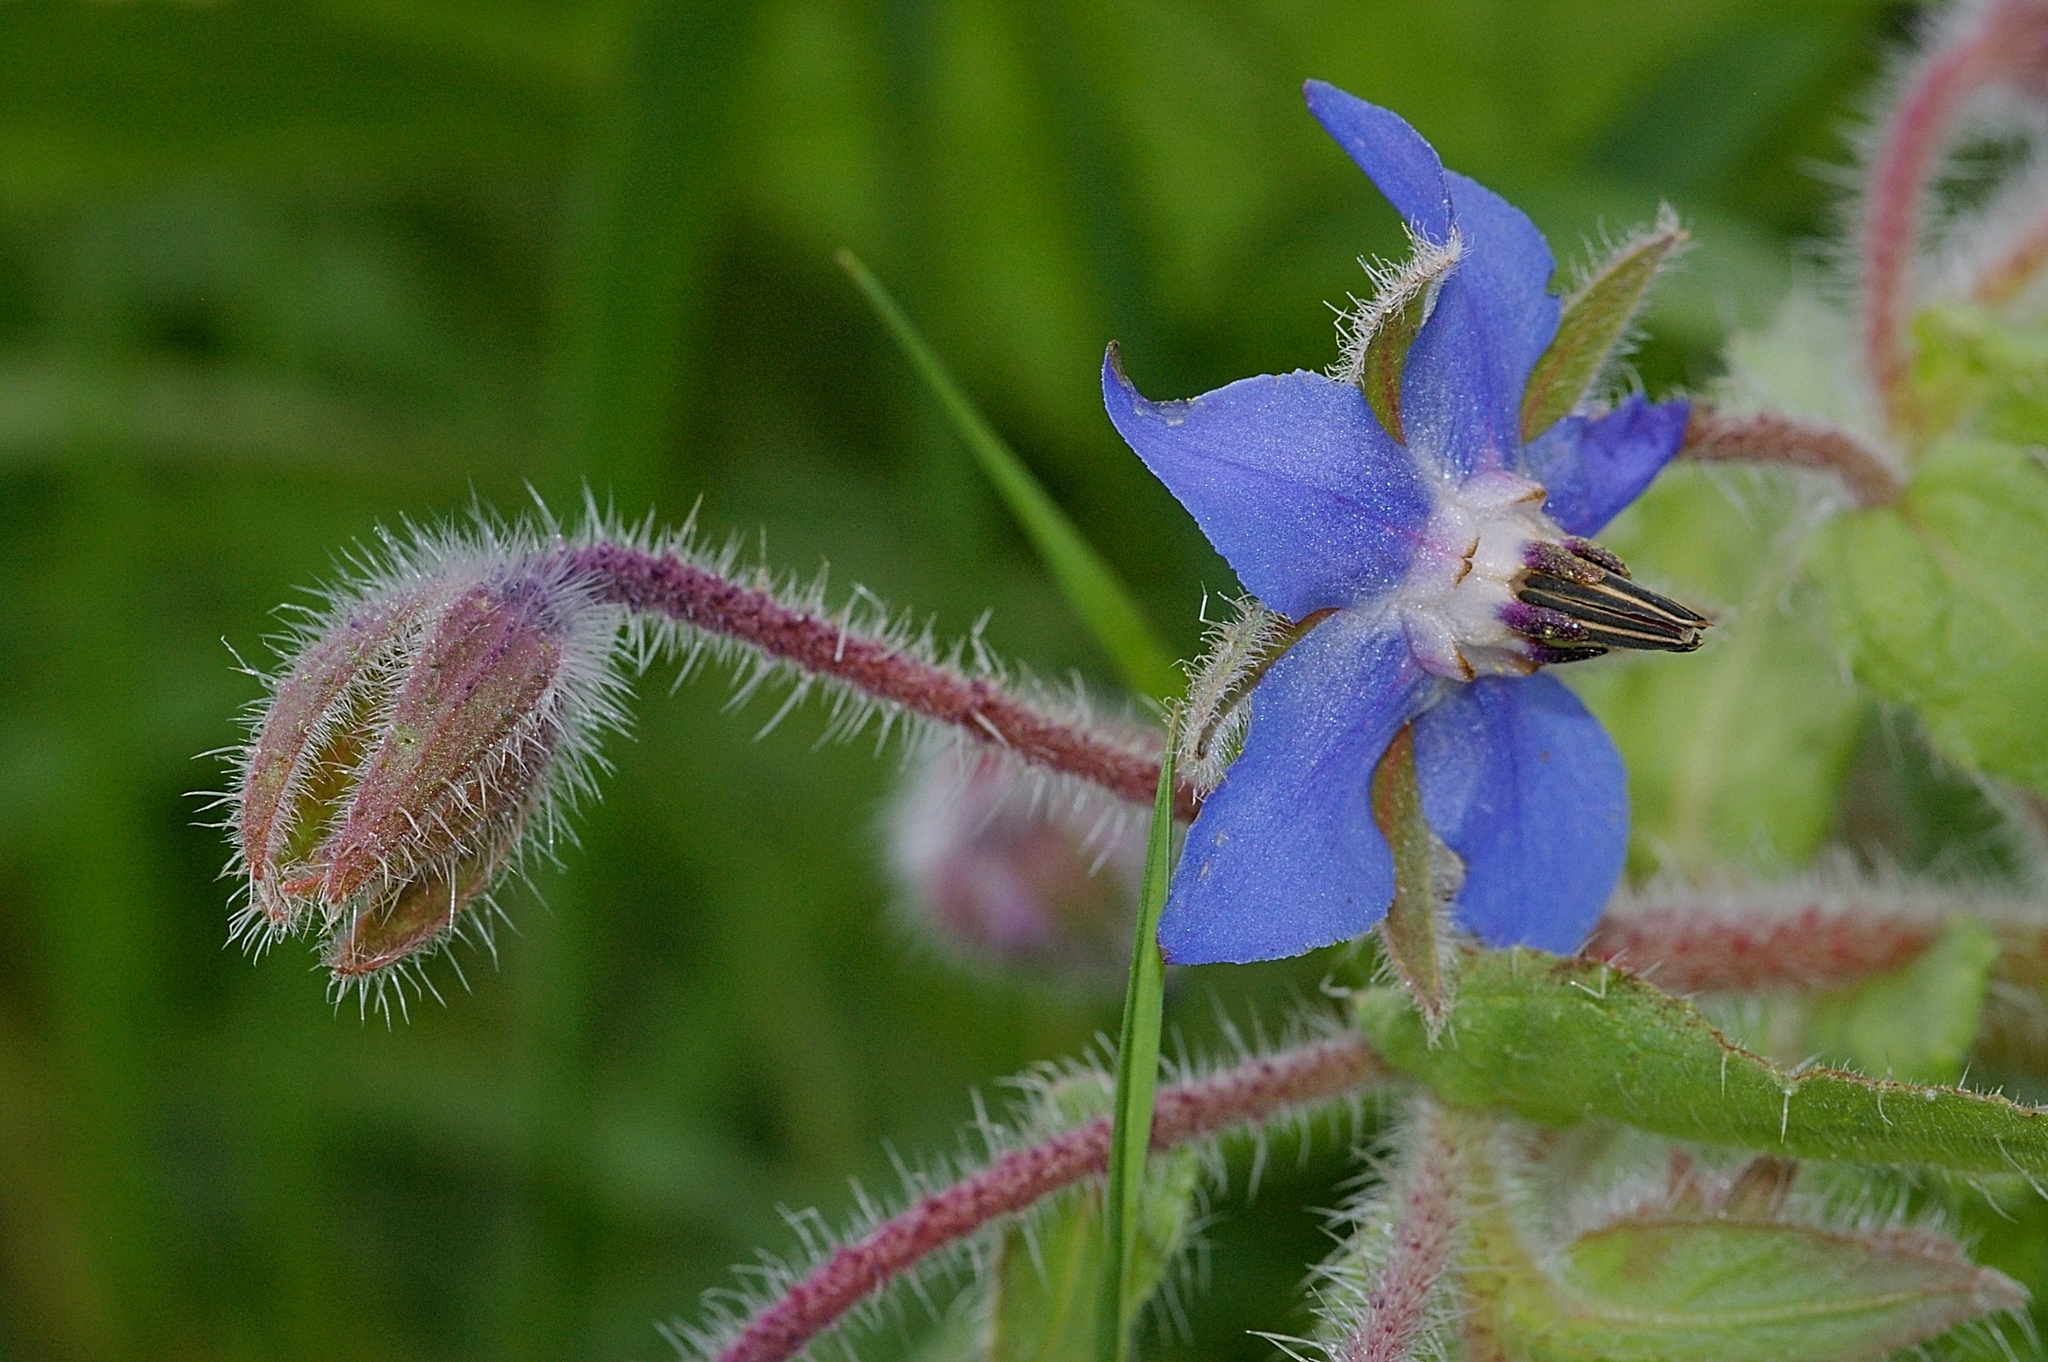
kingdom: Plantae
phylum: Tracheophyta
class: Magnoliopsida
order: Boraginales
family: Boraginaceae
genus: Borago
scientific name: Borago officinalis
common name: Borage
